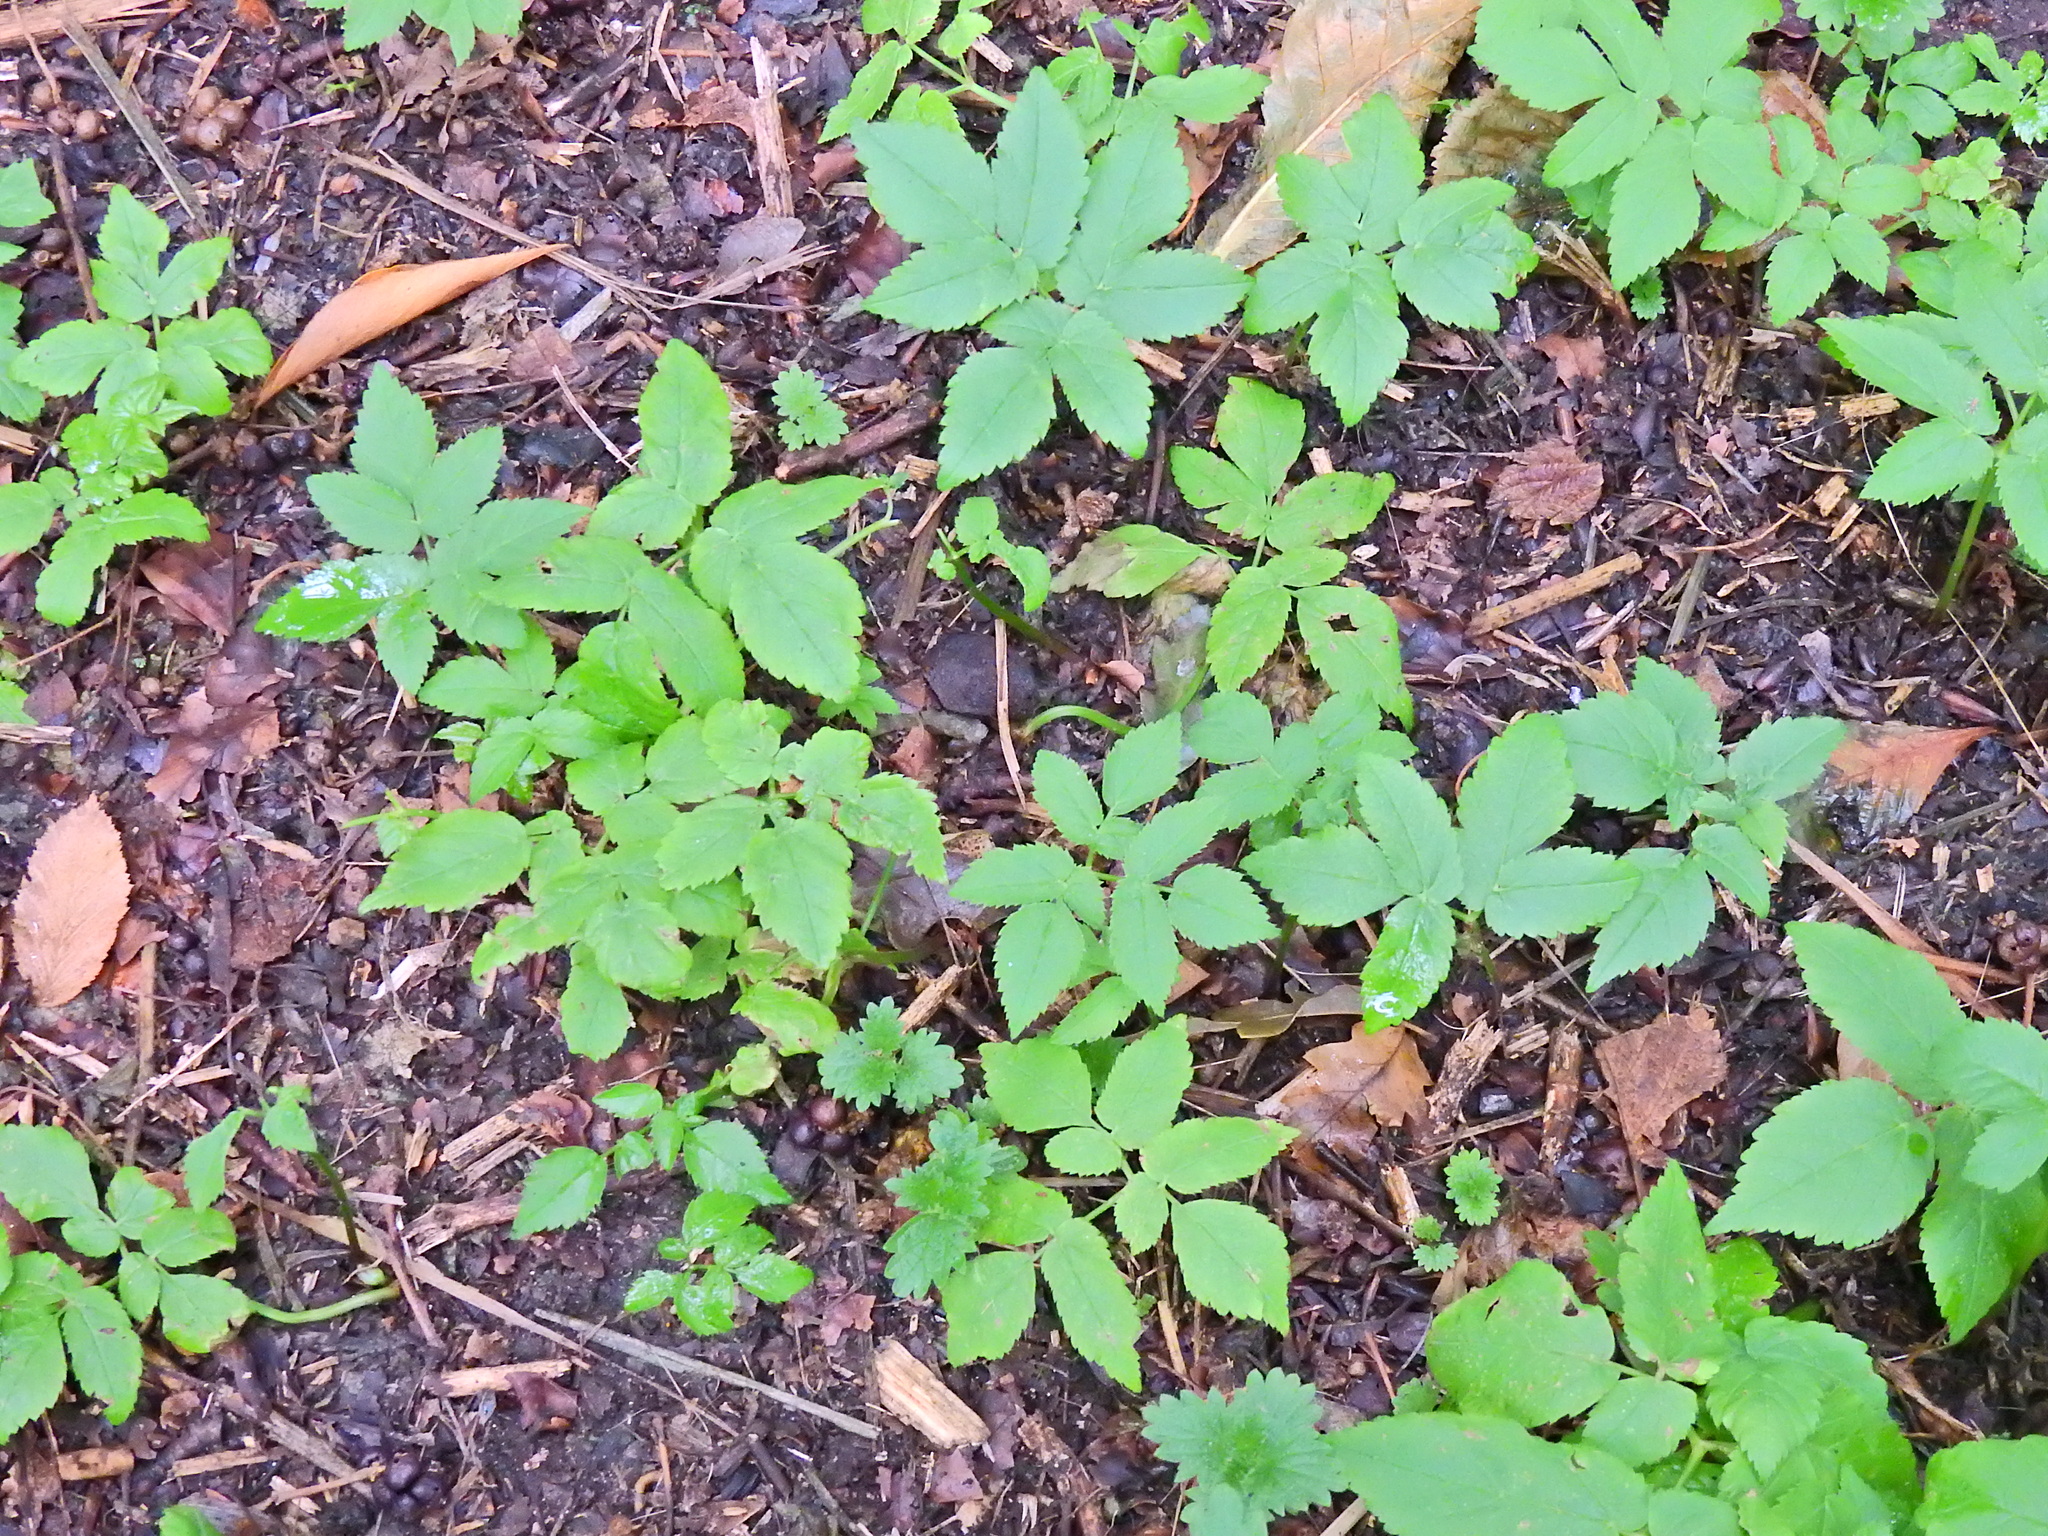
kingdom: Plantae
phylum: Tracheophyta
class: Magnoliopsida
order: Apiales
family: Apiaceae
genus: Aegopodium
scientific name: Aegopodium podagraria
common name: Ground-elder
